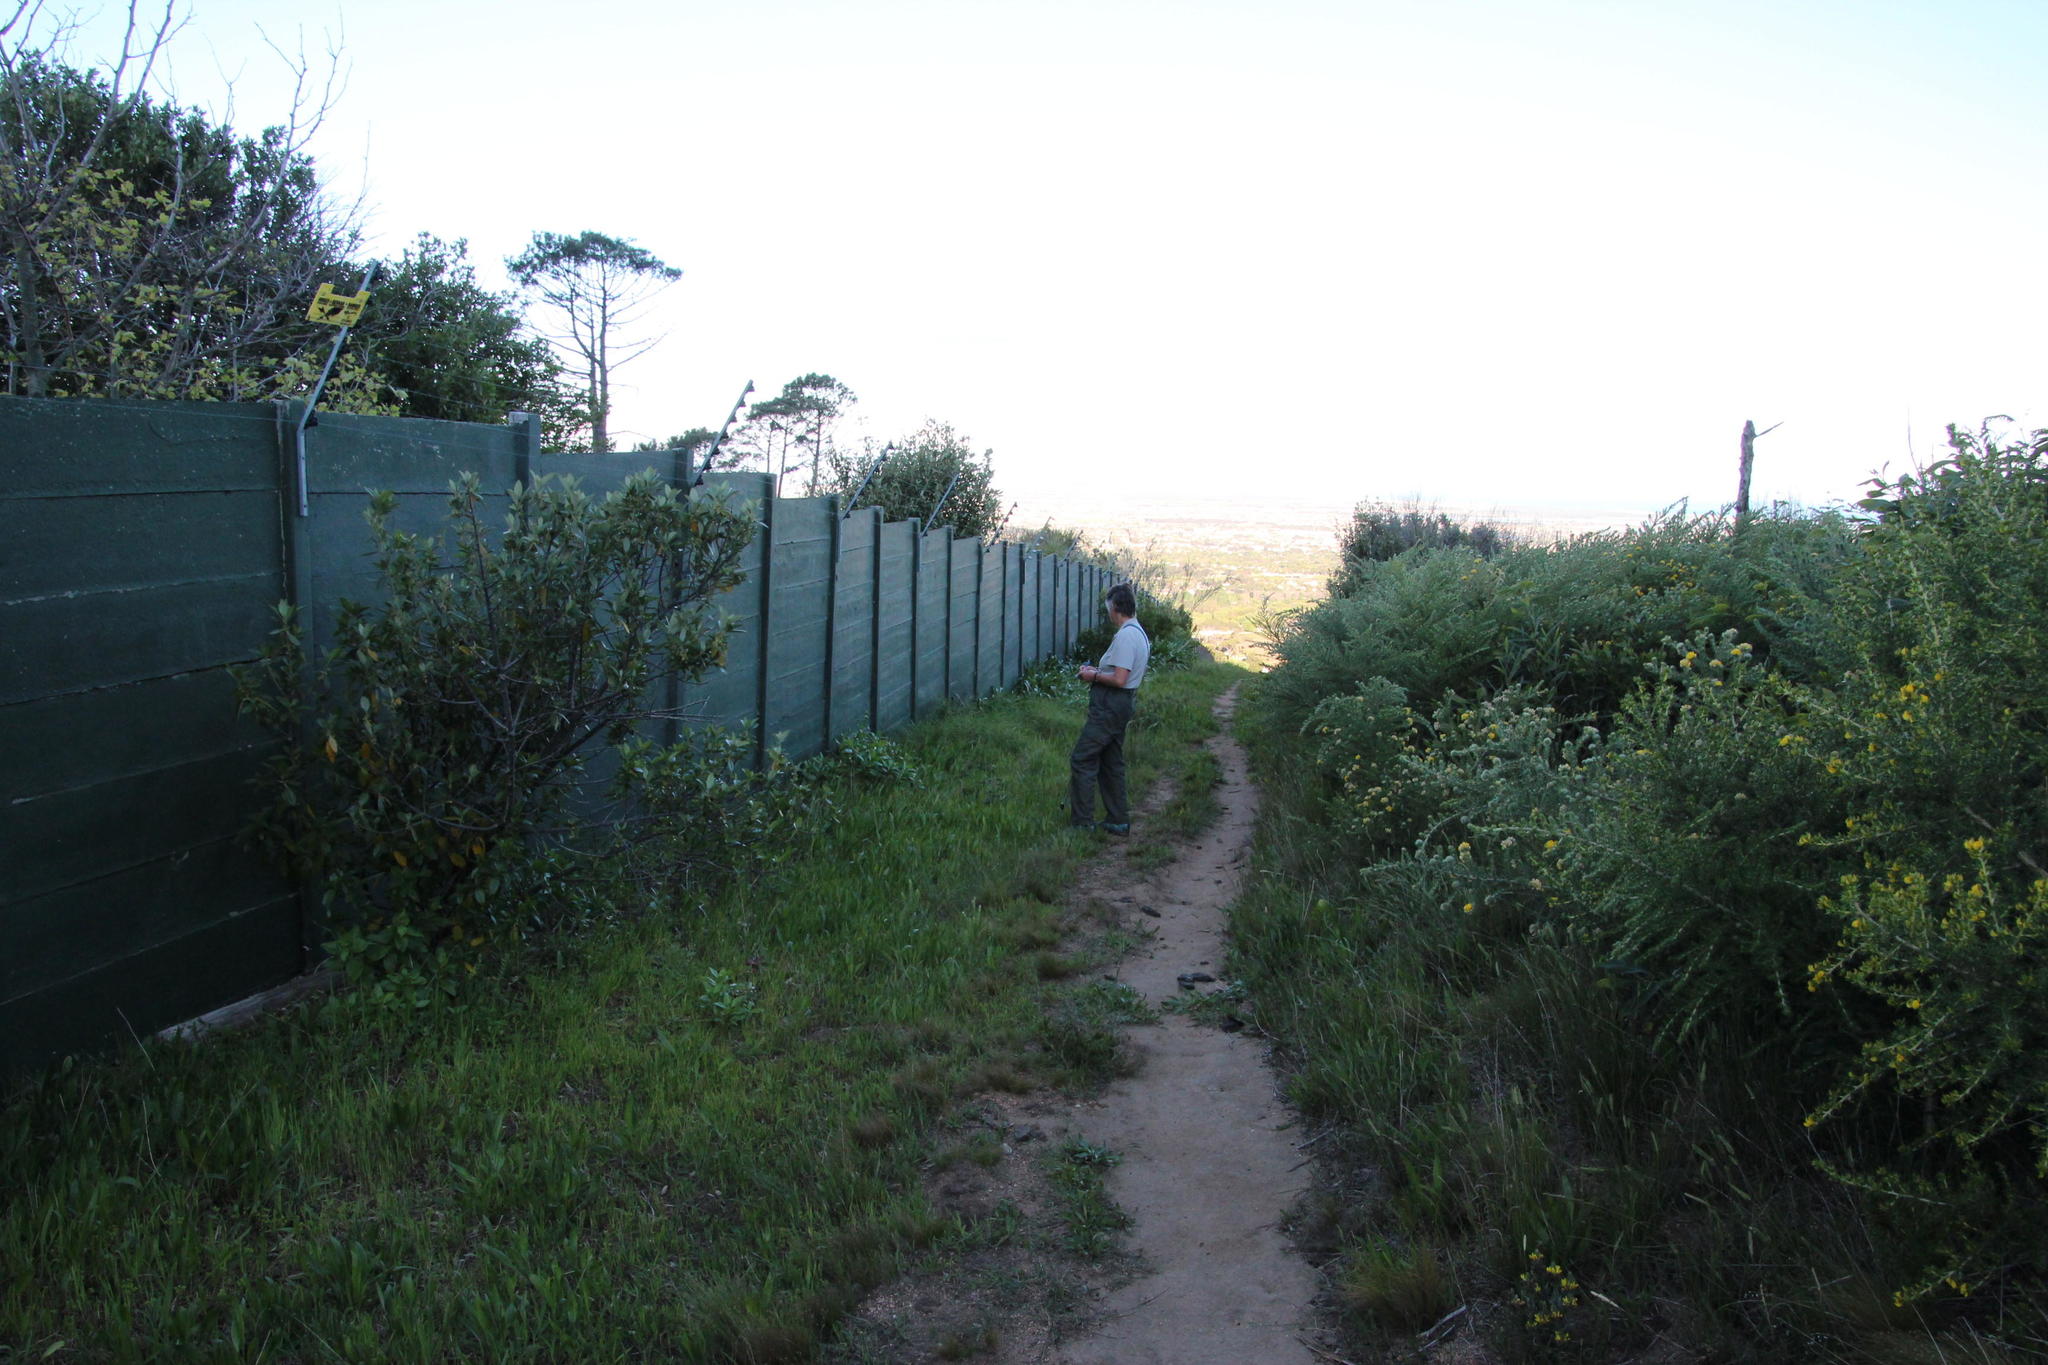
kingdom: Plantae
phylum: Tracheophyta
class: Magnoliopsida
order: Dipsacales
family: Caprifoliaceae
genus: Centranthus
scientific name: Centranthus ruber
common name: Red valerian
